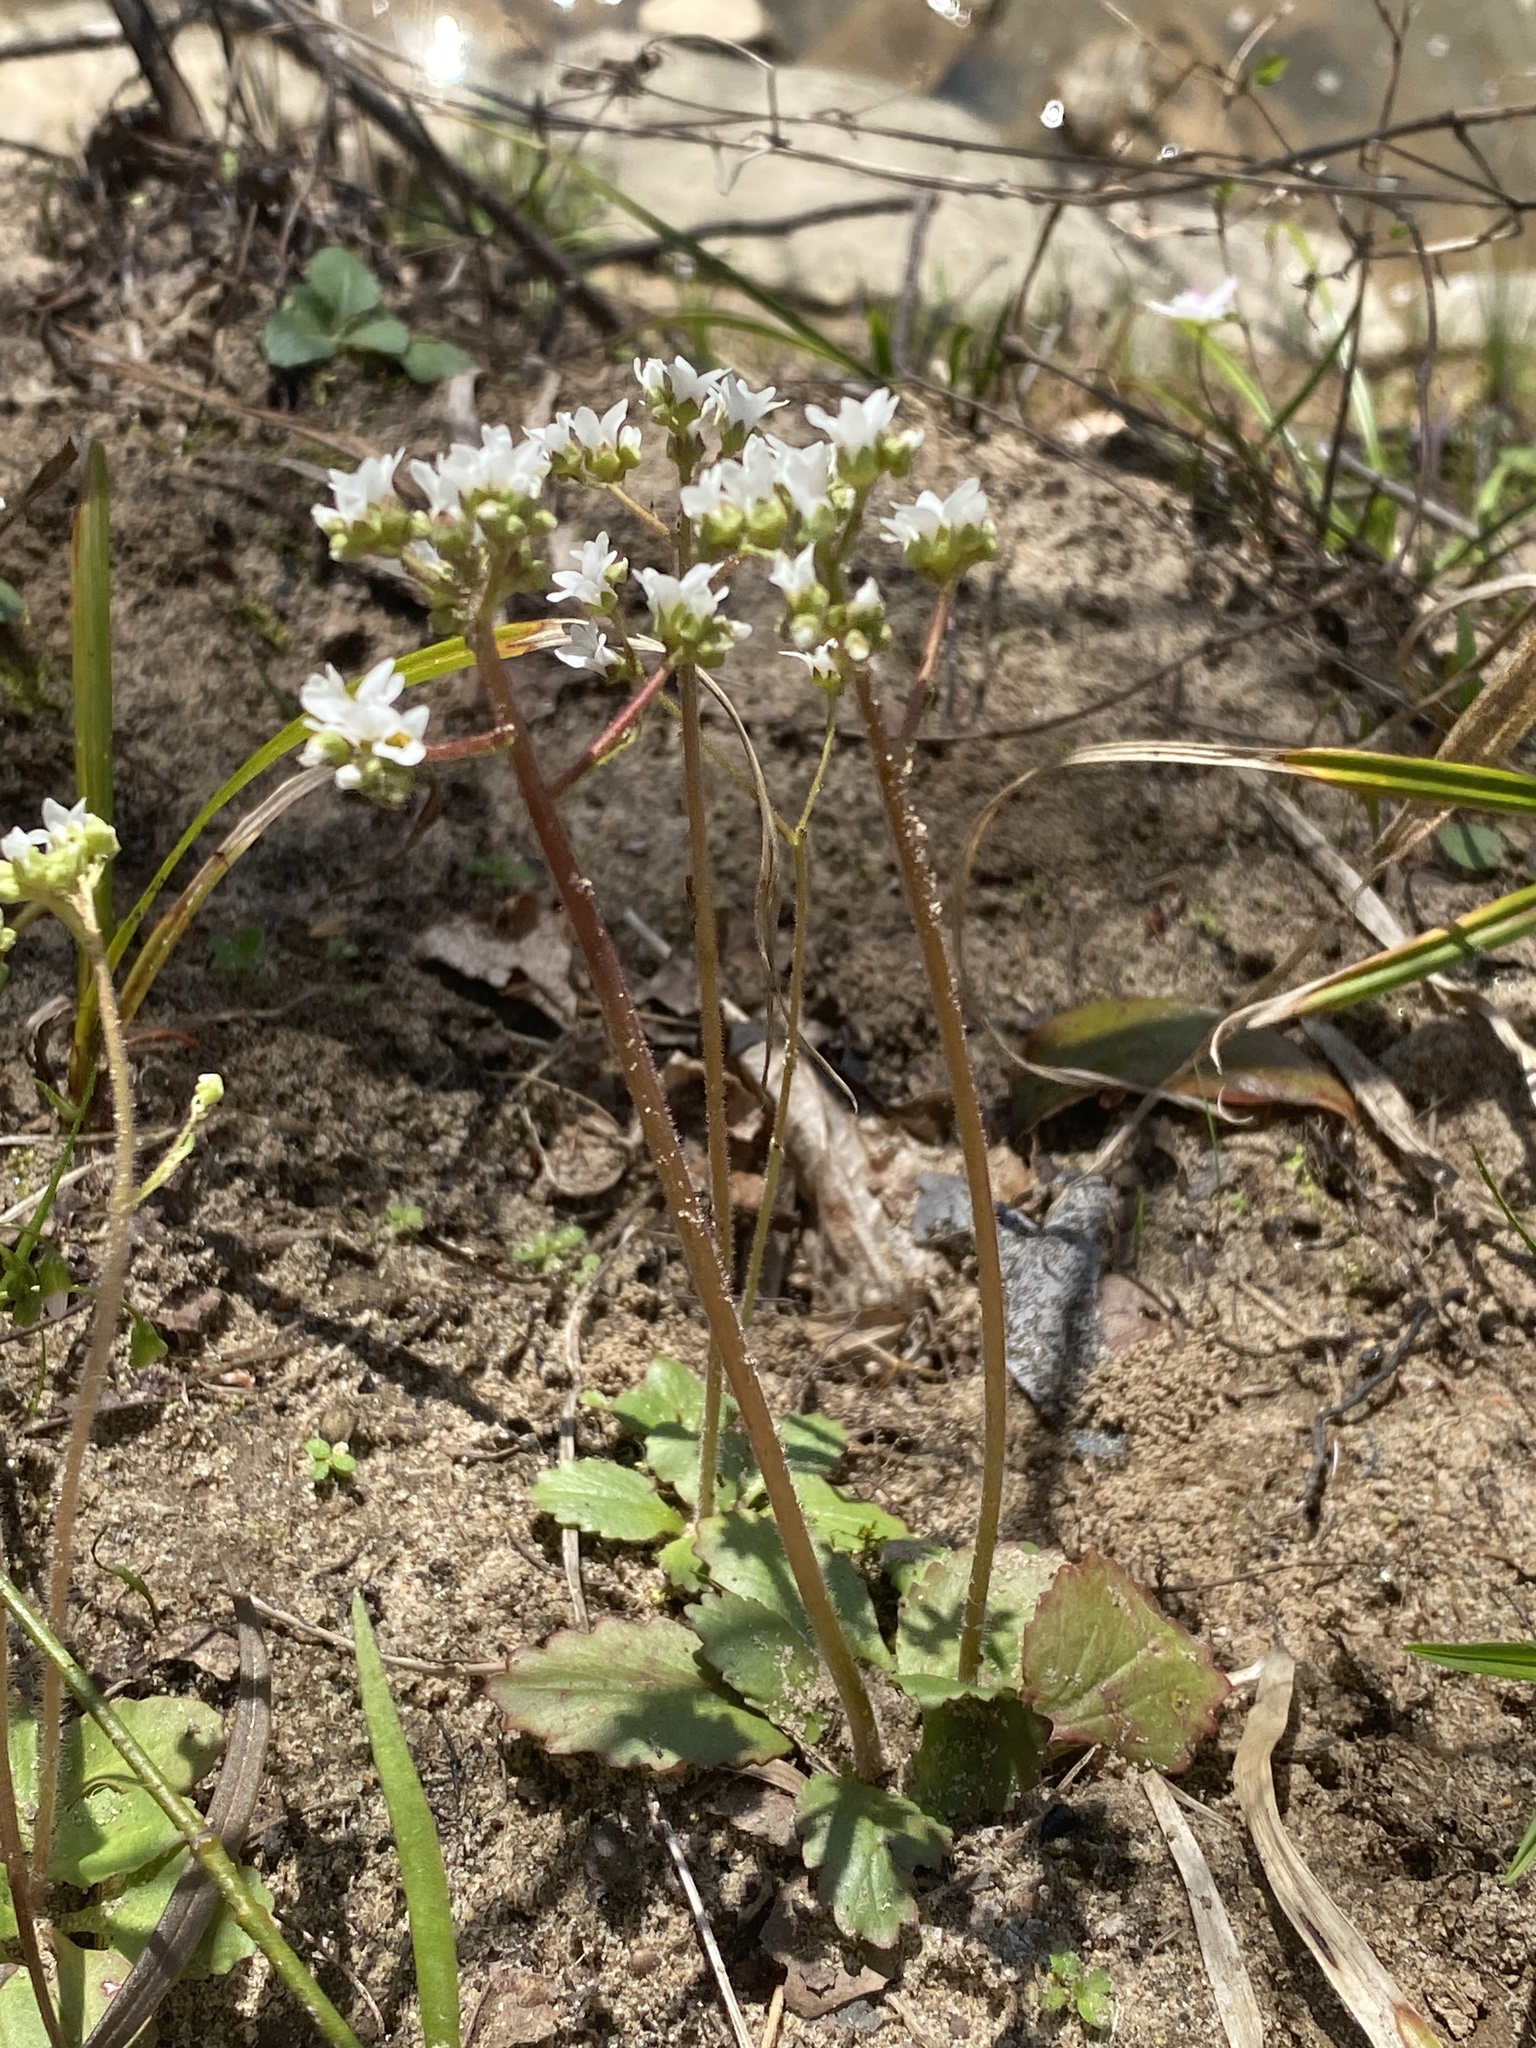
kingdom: Plantae
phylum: Tracheophyta
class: Magnoliopsida
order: Saxifragales
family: Saxifragaceae
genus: Micranthes
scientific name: Micranthes virginiensis
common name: Early saxifrage
